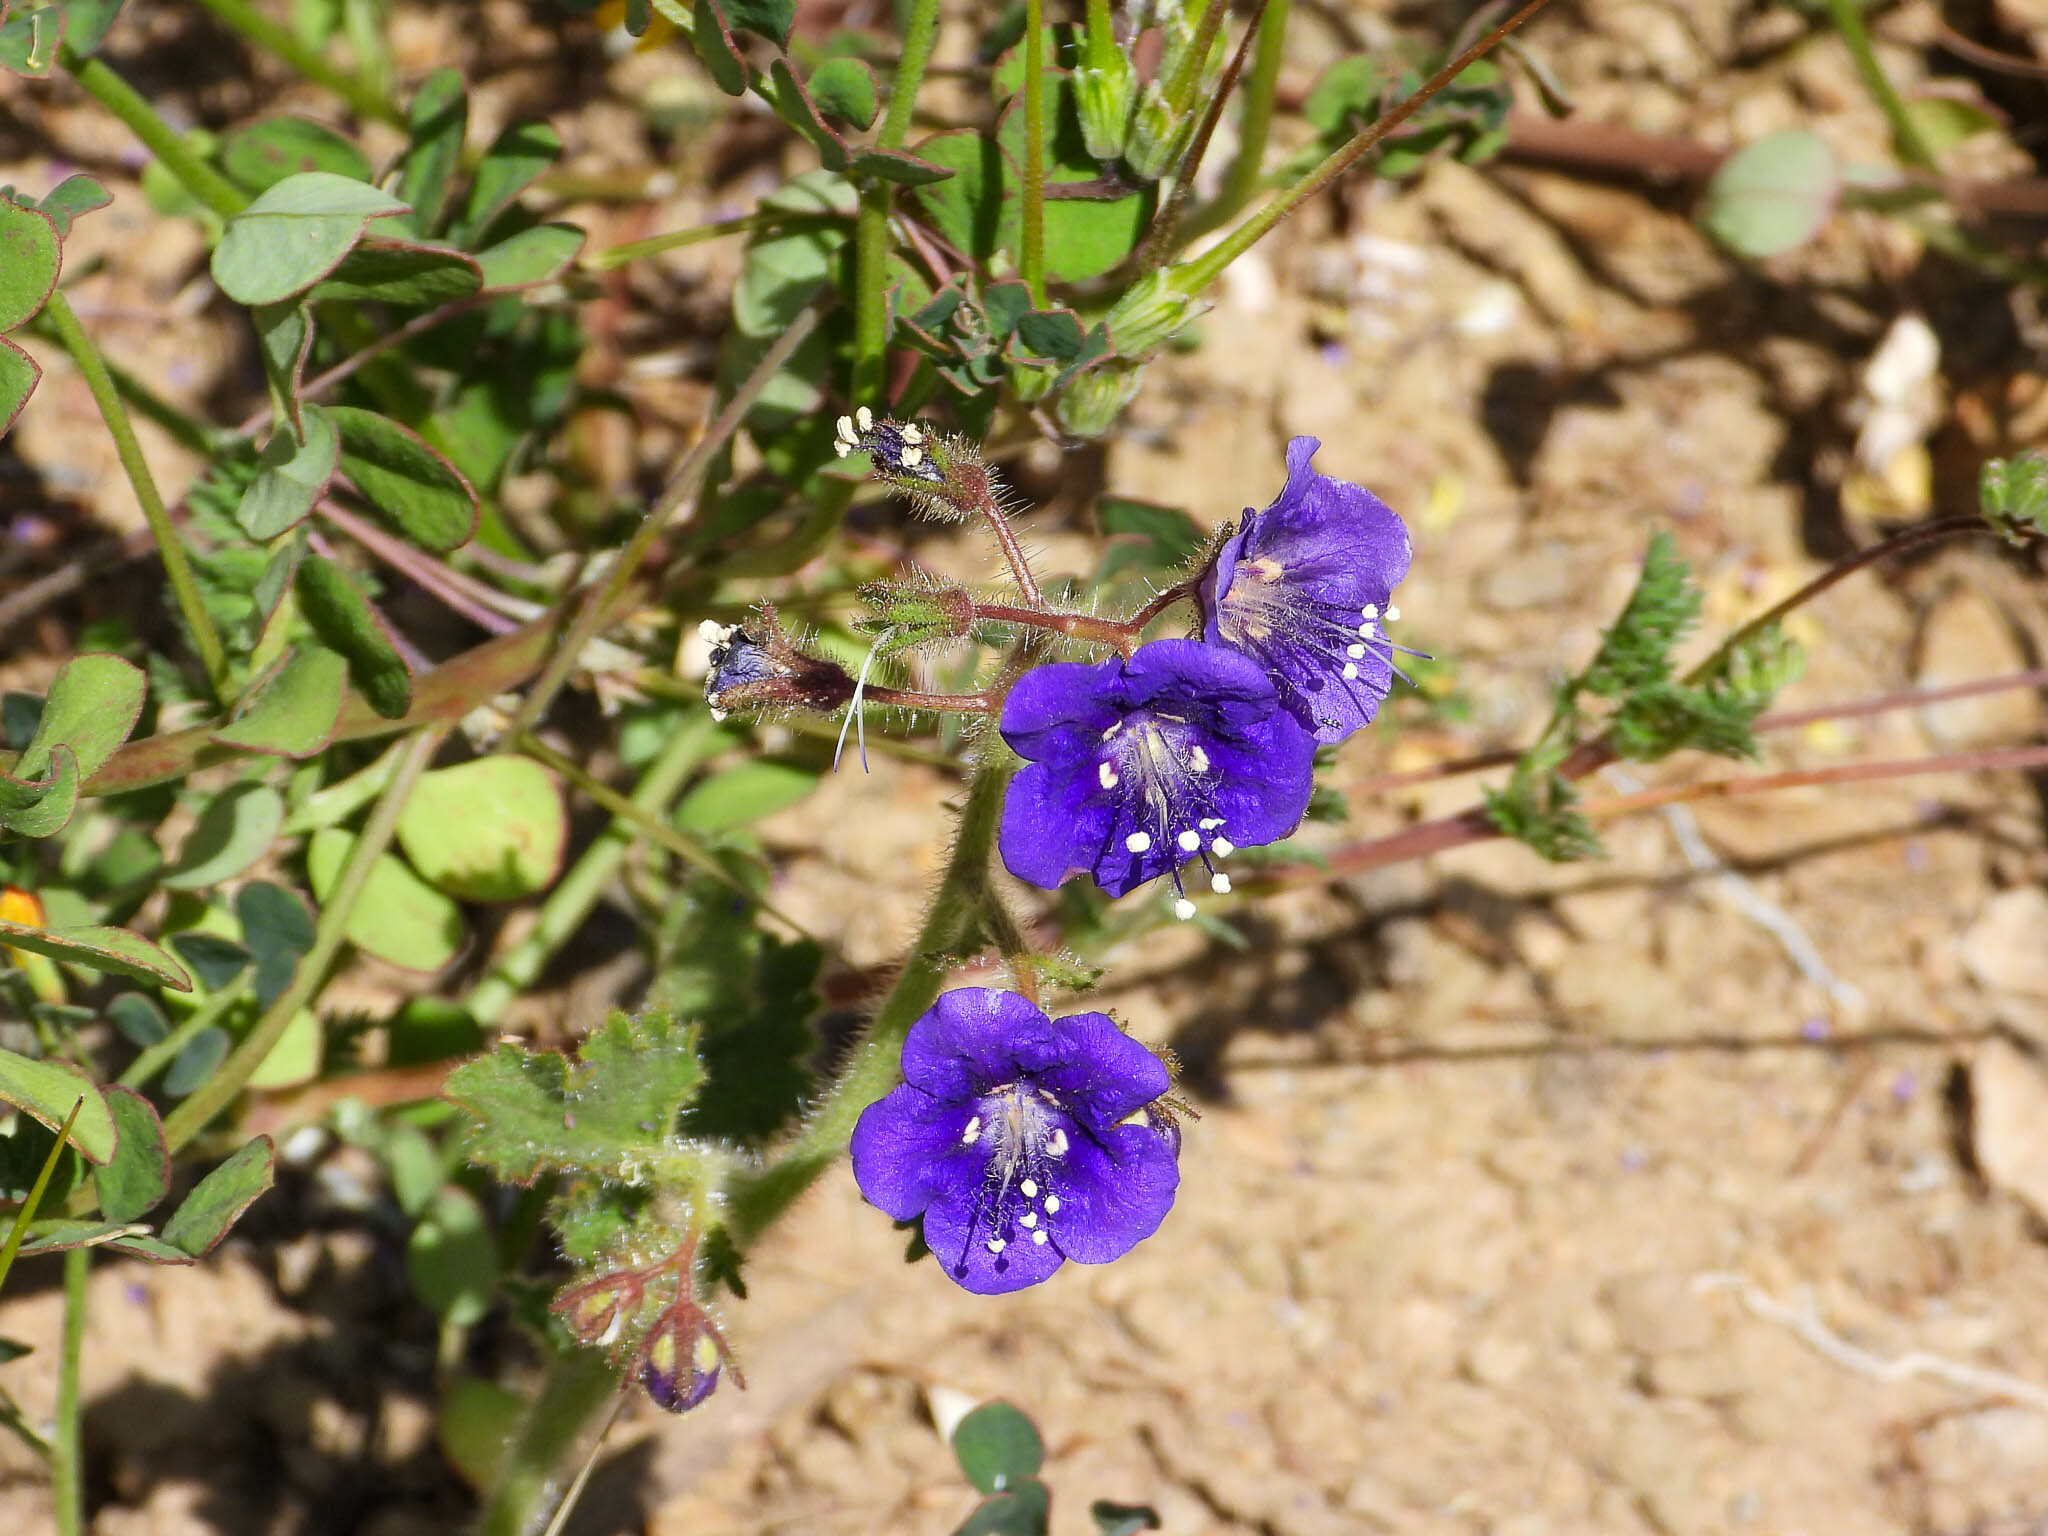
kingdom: Plantae
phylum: Tracheophyta
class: Magnoliopsida
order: Boraginales
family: Hydrophyllaceae
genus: Phacelia
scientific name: Phacelia parryi
